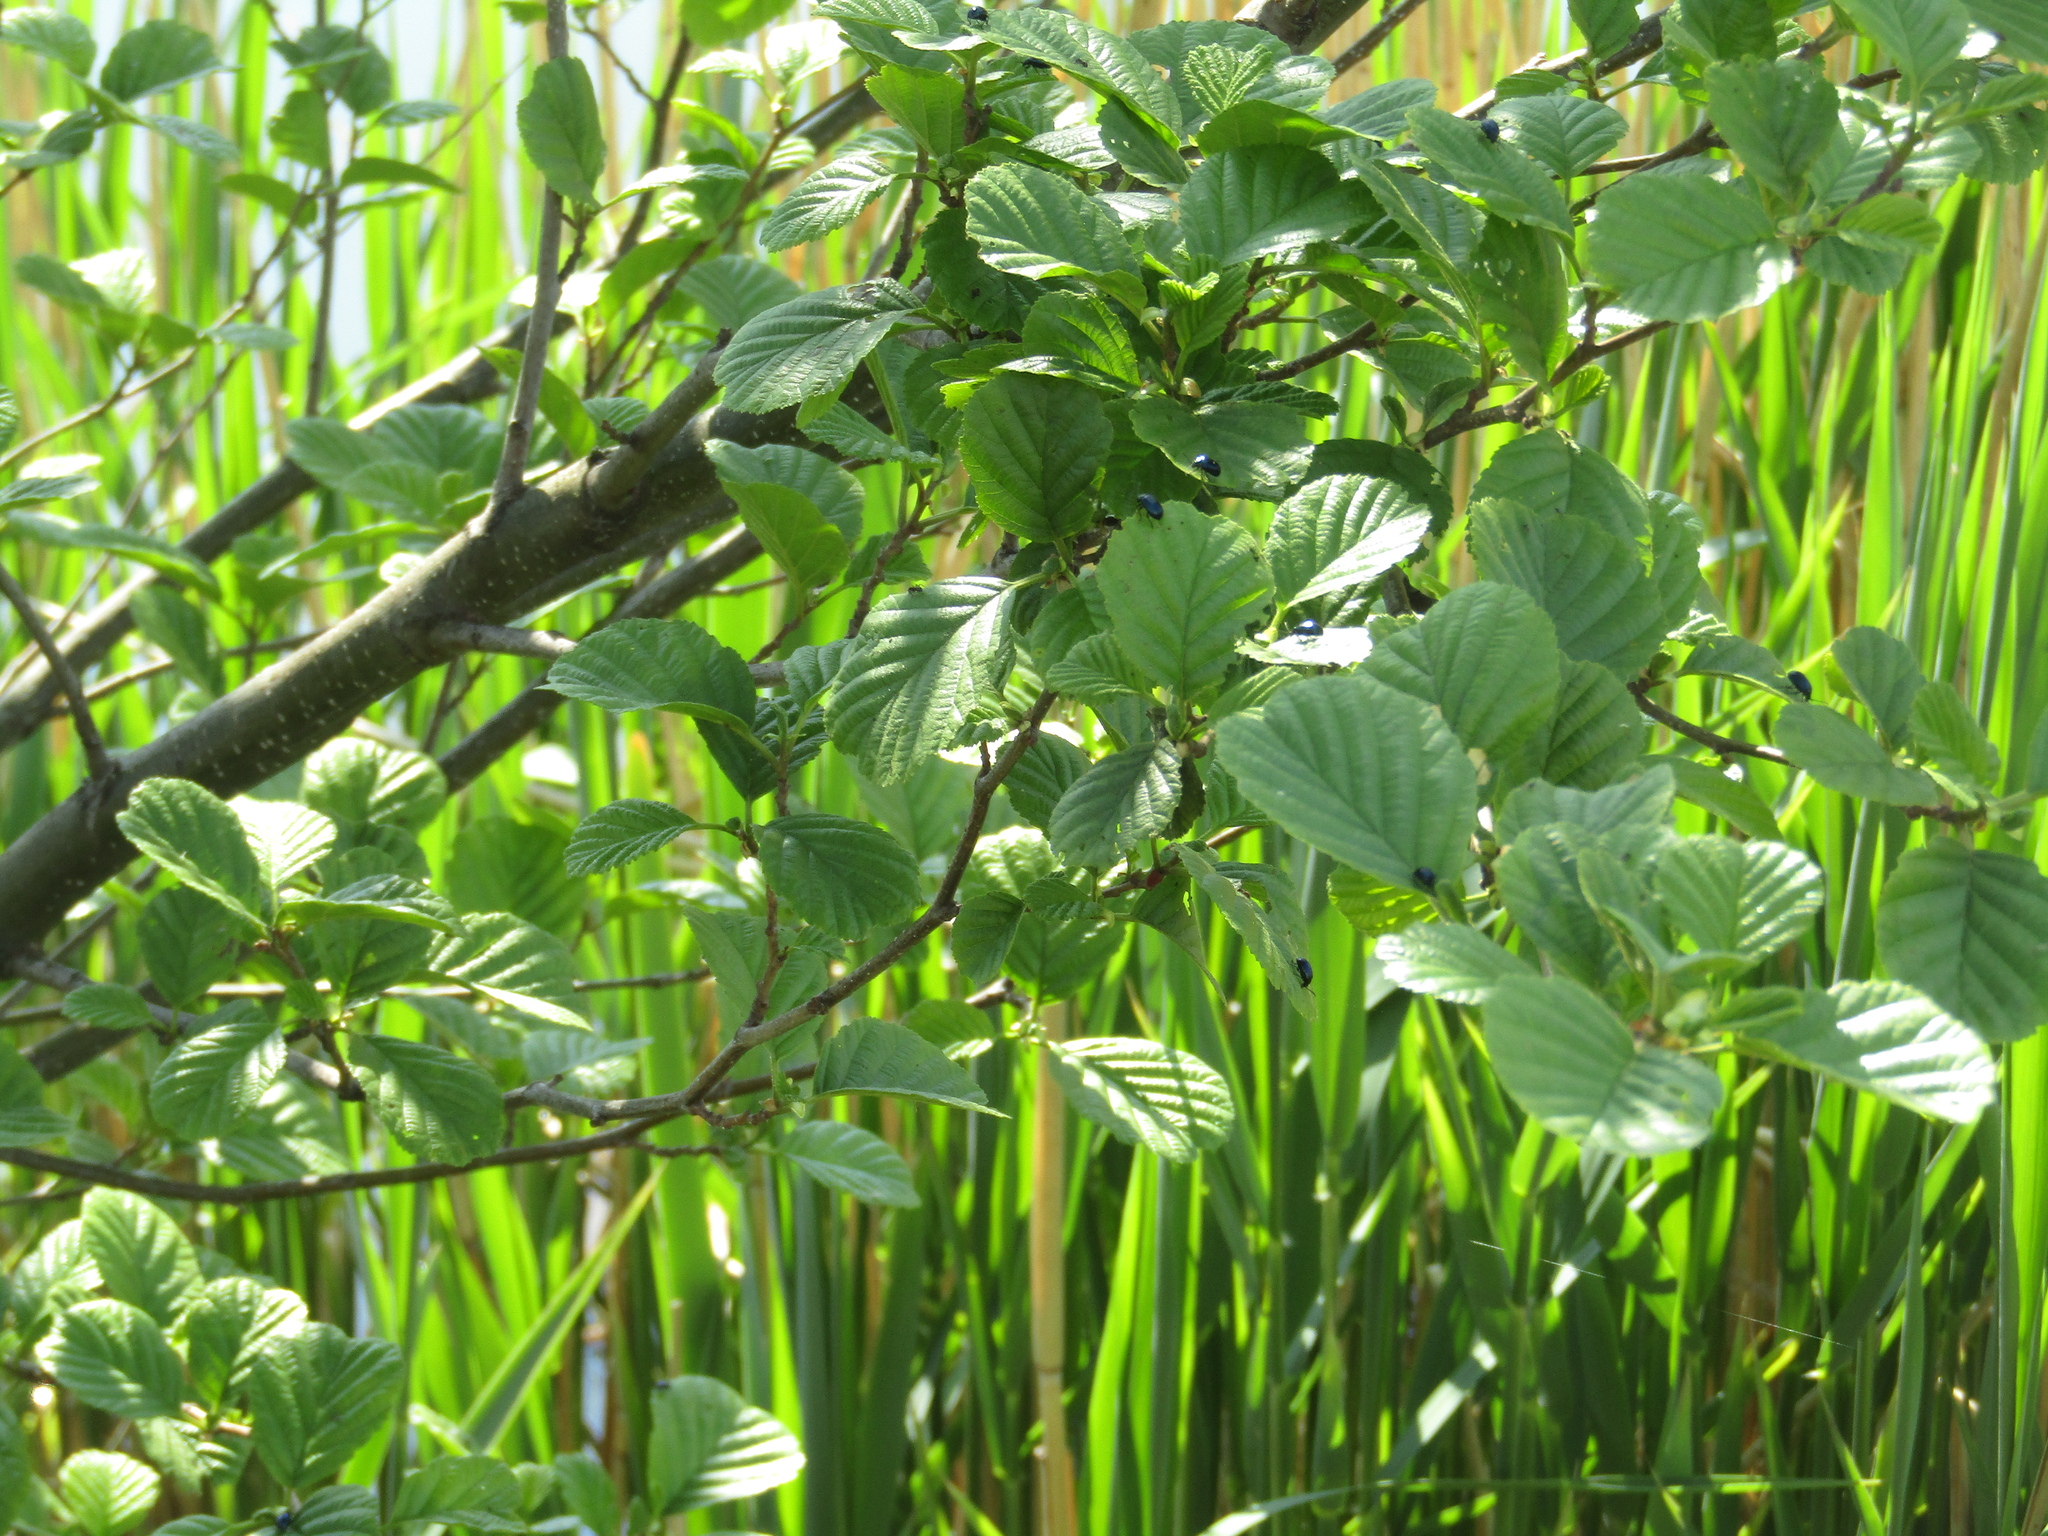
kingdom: Plantae
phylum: Tracheophyta
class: Magnoliopsida
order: Fagales
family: Betulaceae
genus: Alnus
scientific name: Alnus glutinosa
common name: Black alder
